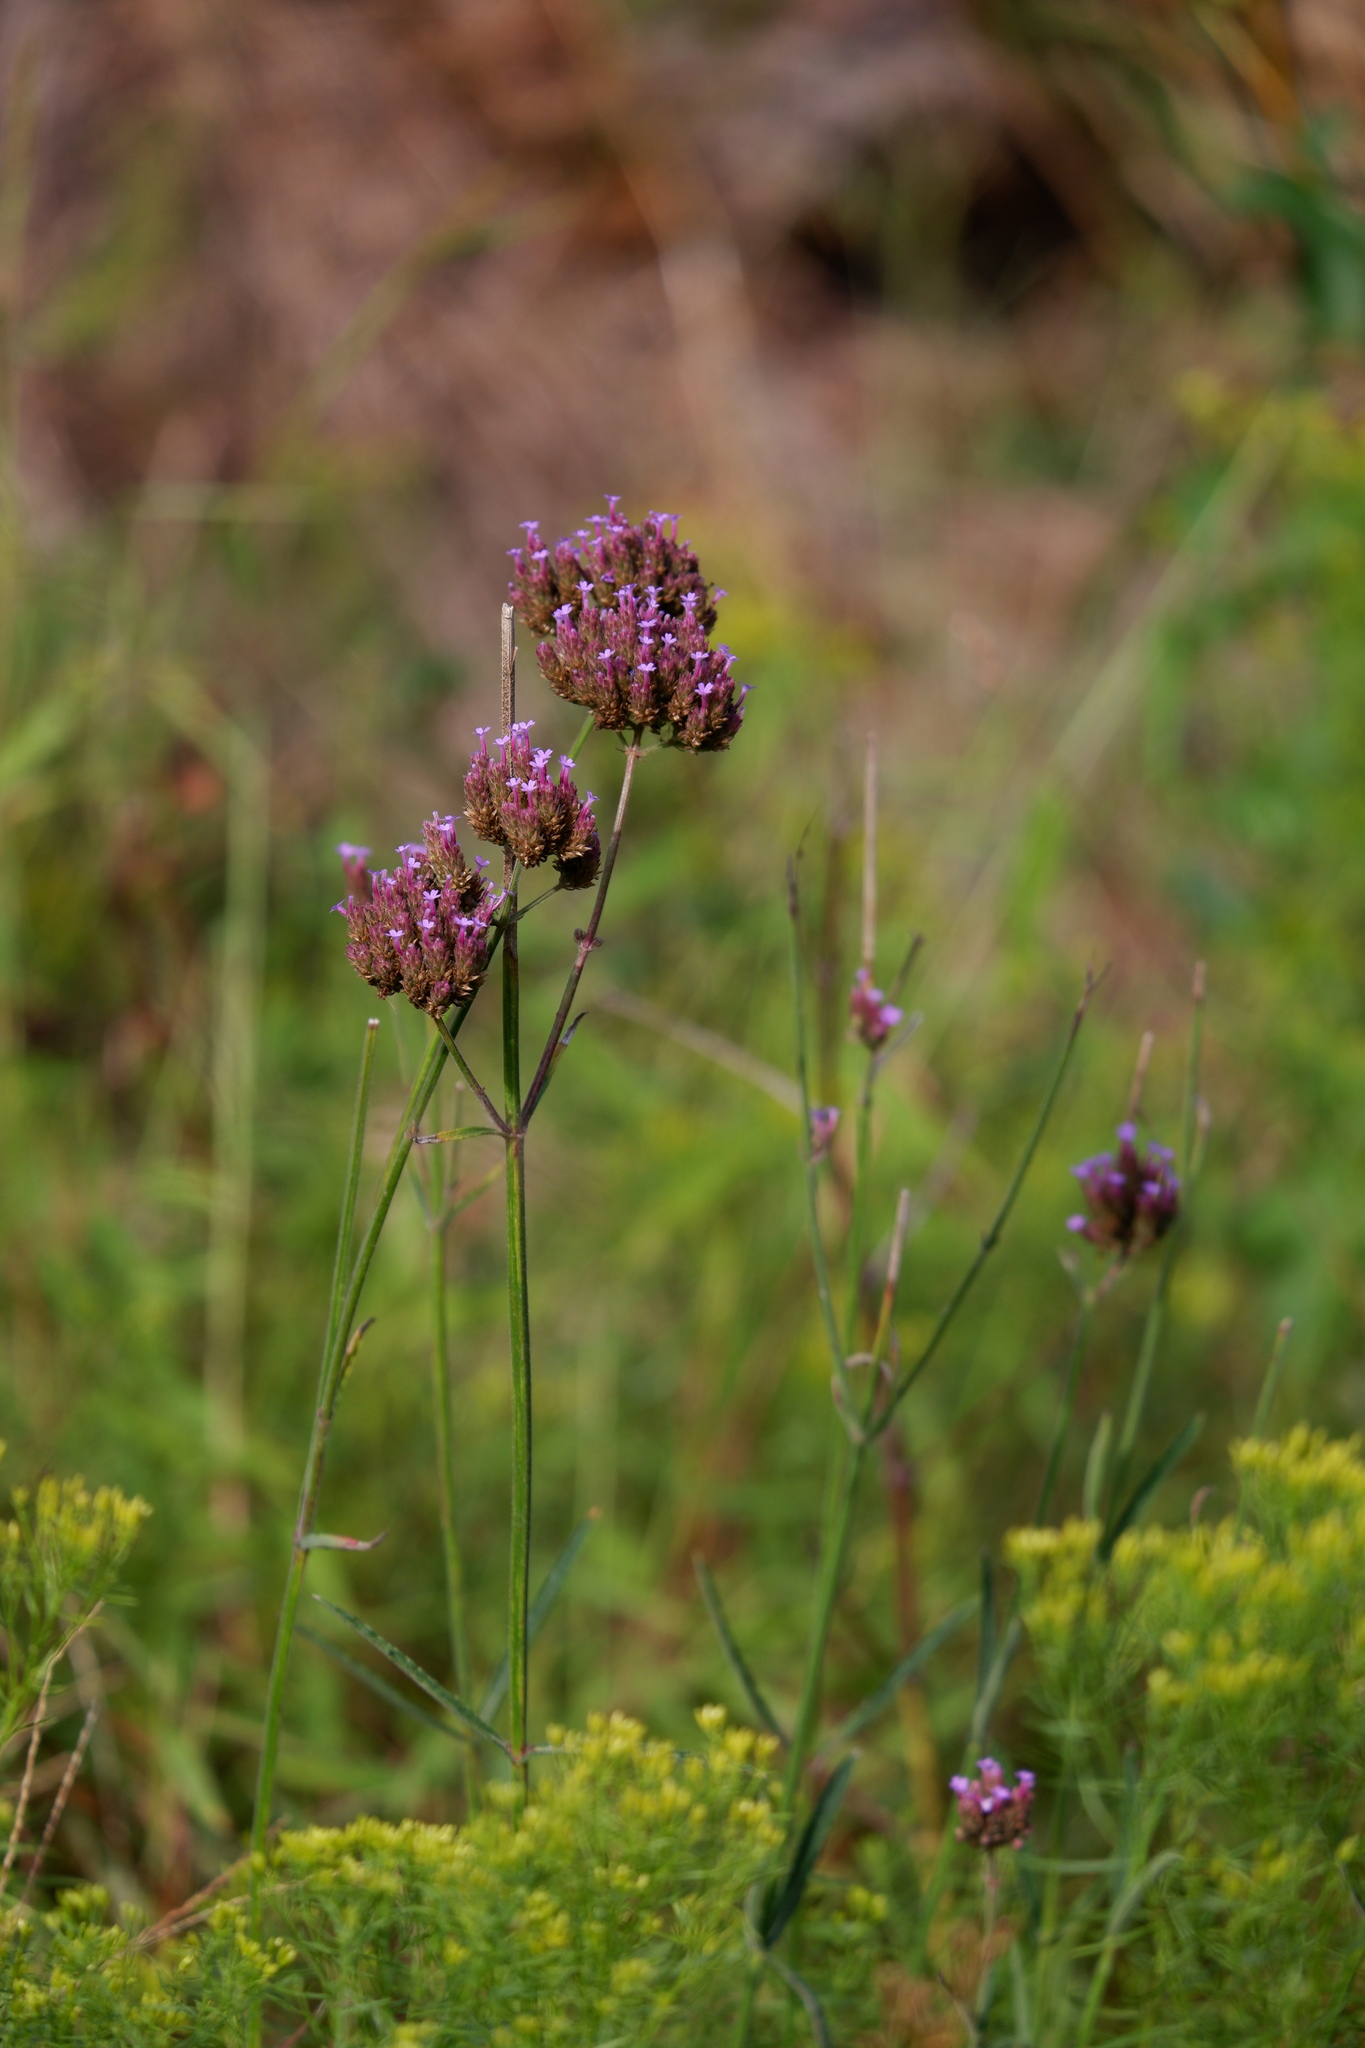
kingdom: Plantae
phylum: Tracheophyta
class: Magnoliopsida
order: Lamiales
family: Verbenaceae
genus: Verbena
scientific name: Verbena bonariensis
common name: Purpletop vervain
